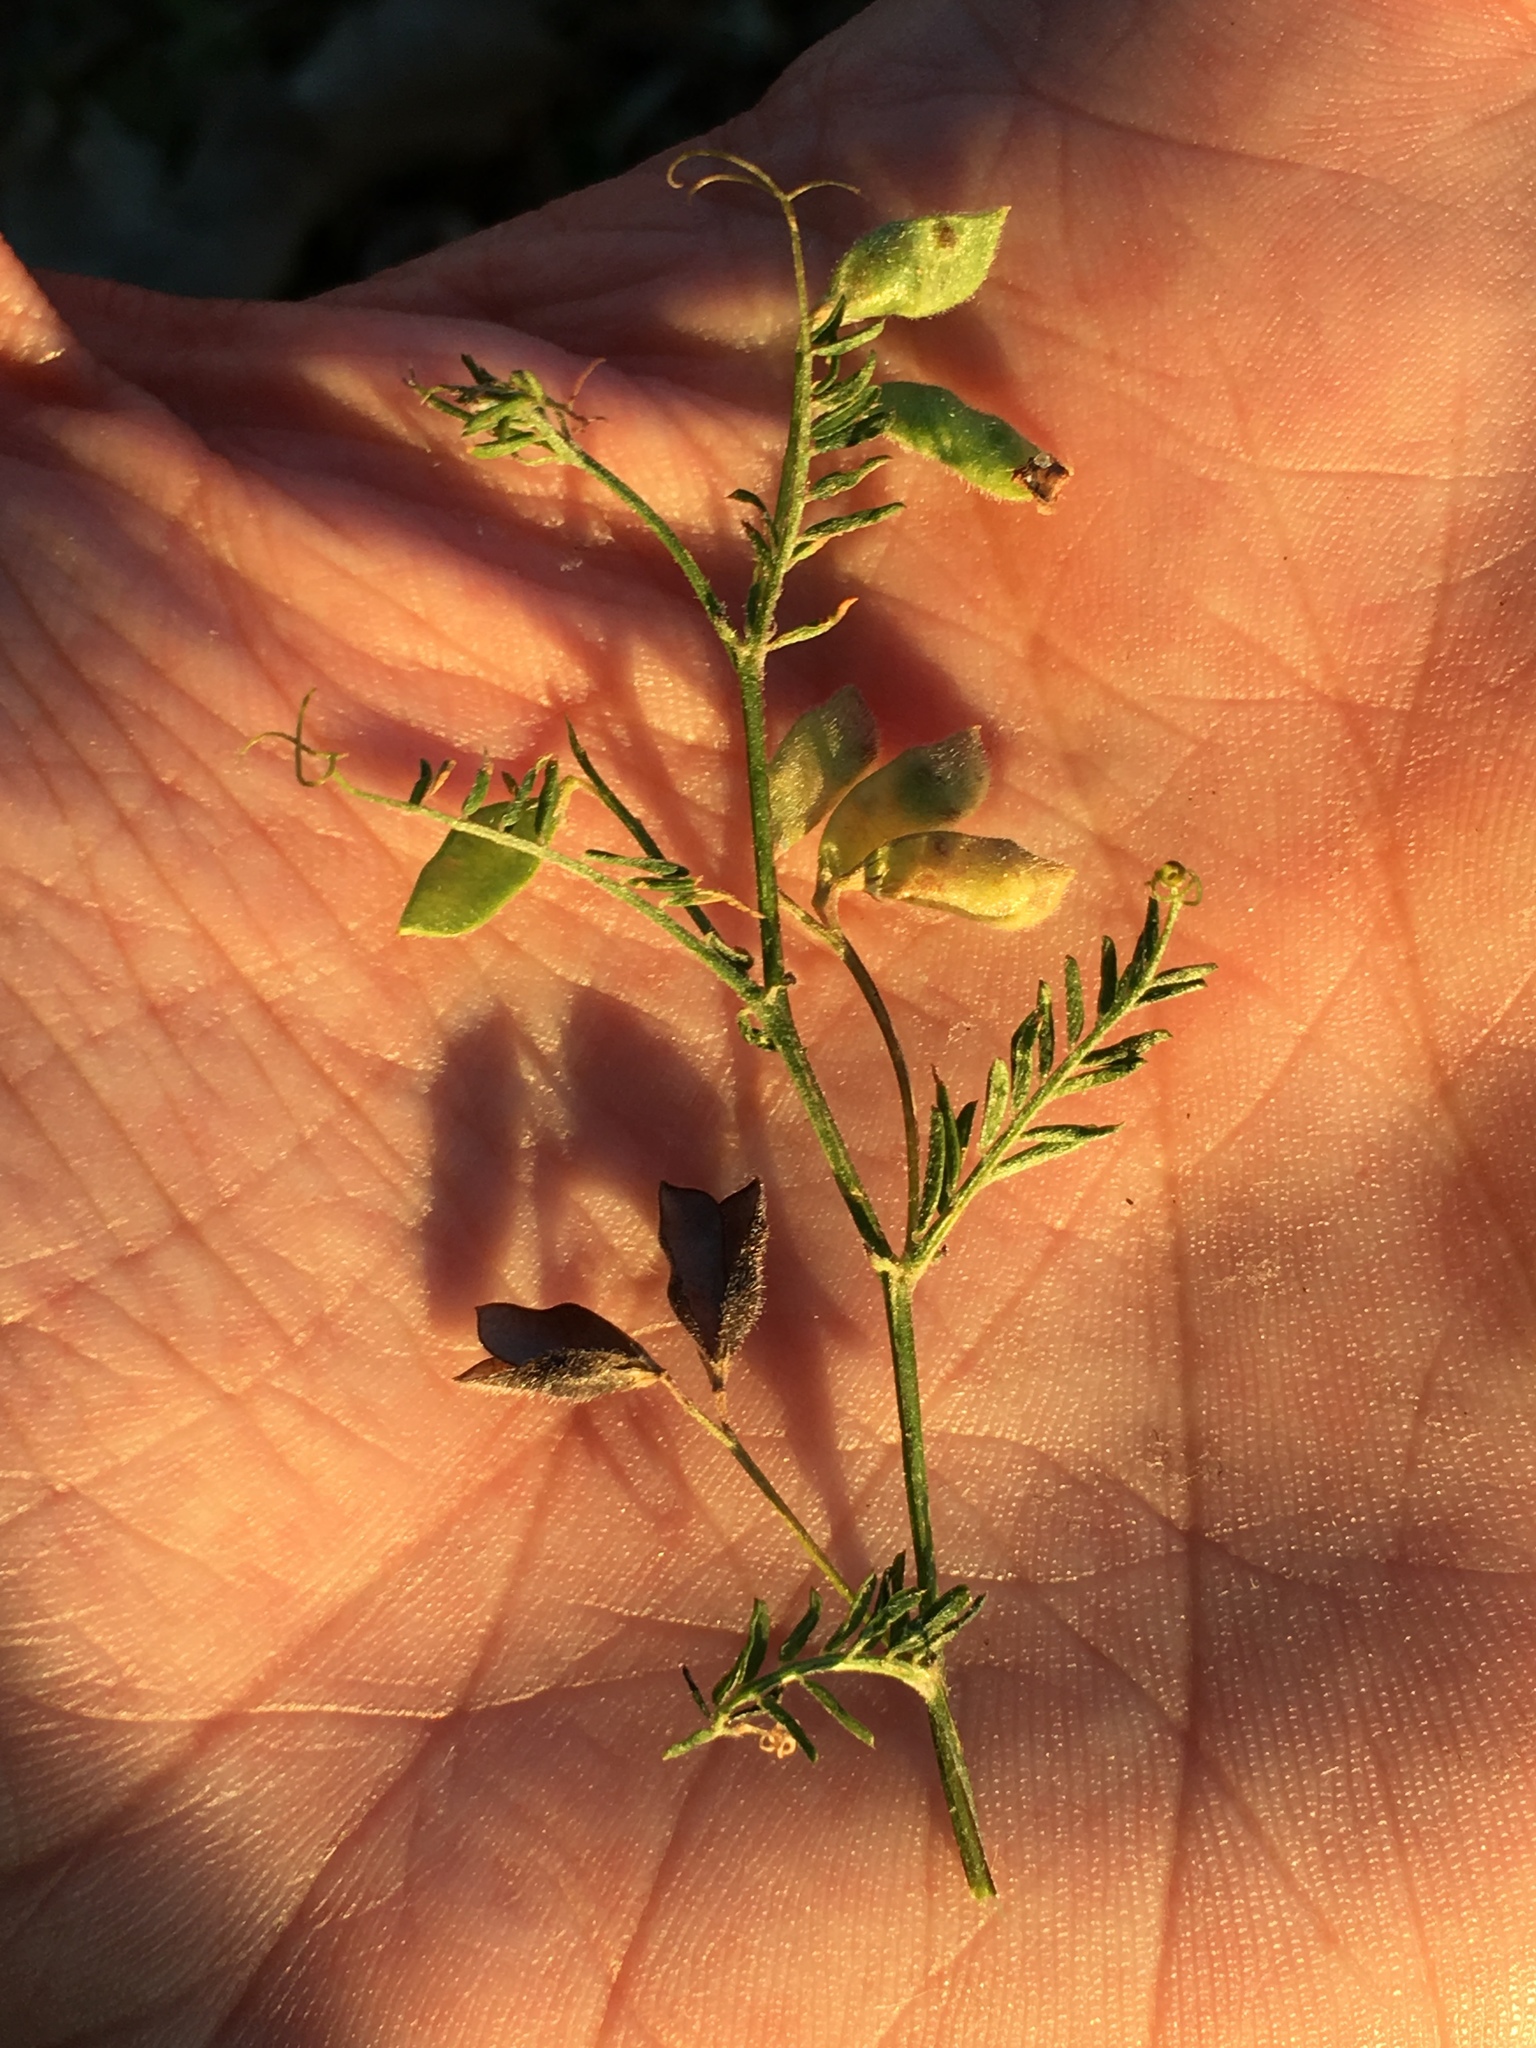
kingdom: Plantae
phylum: Tracheophyta
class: Magnoliopsida
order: Fabales
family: Fabaceae
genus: Vicia
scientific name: Vicia hirsuta
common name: Tiny vetch
